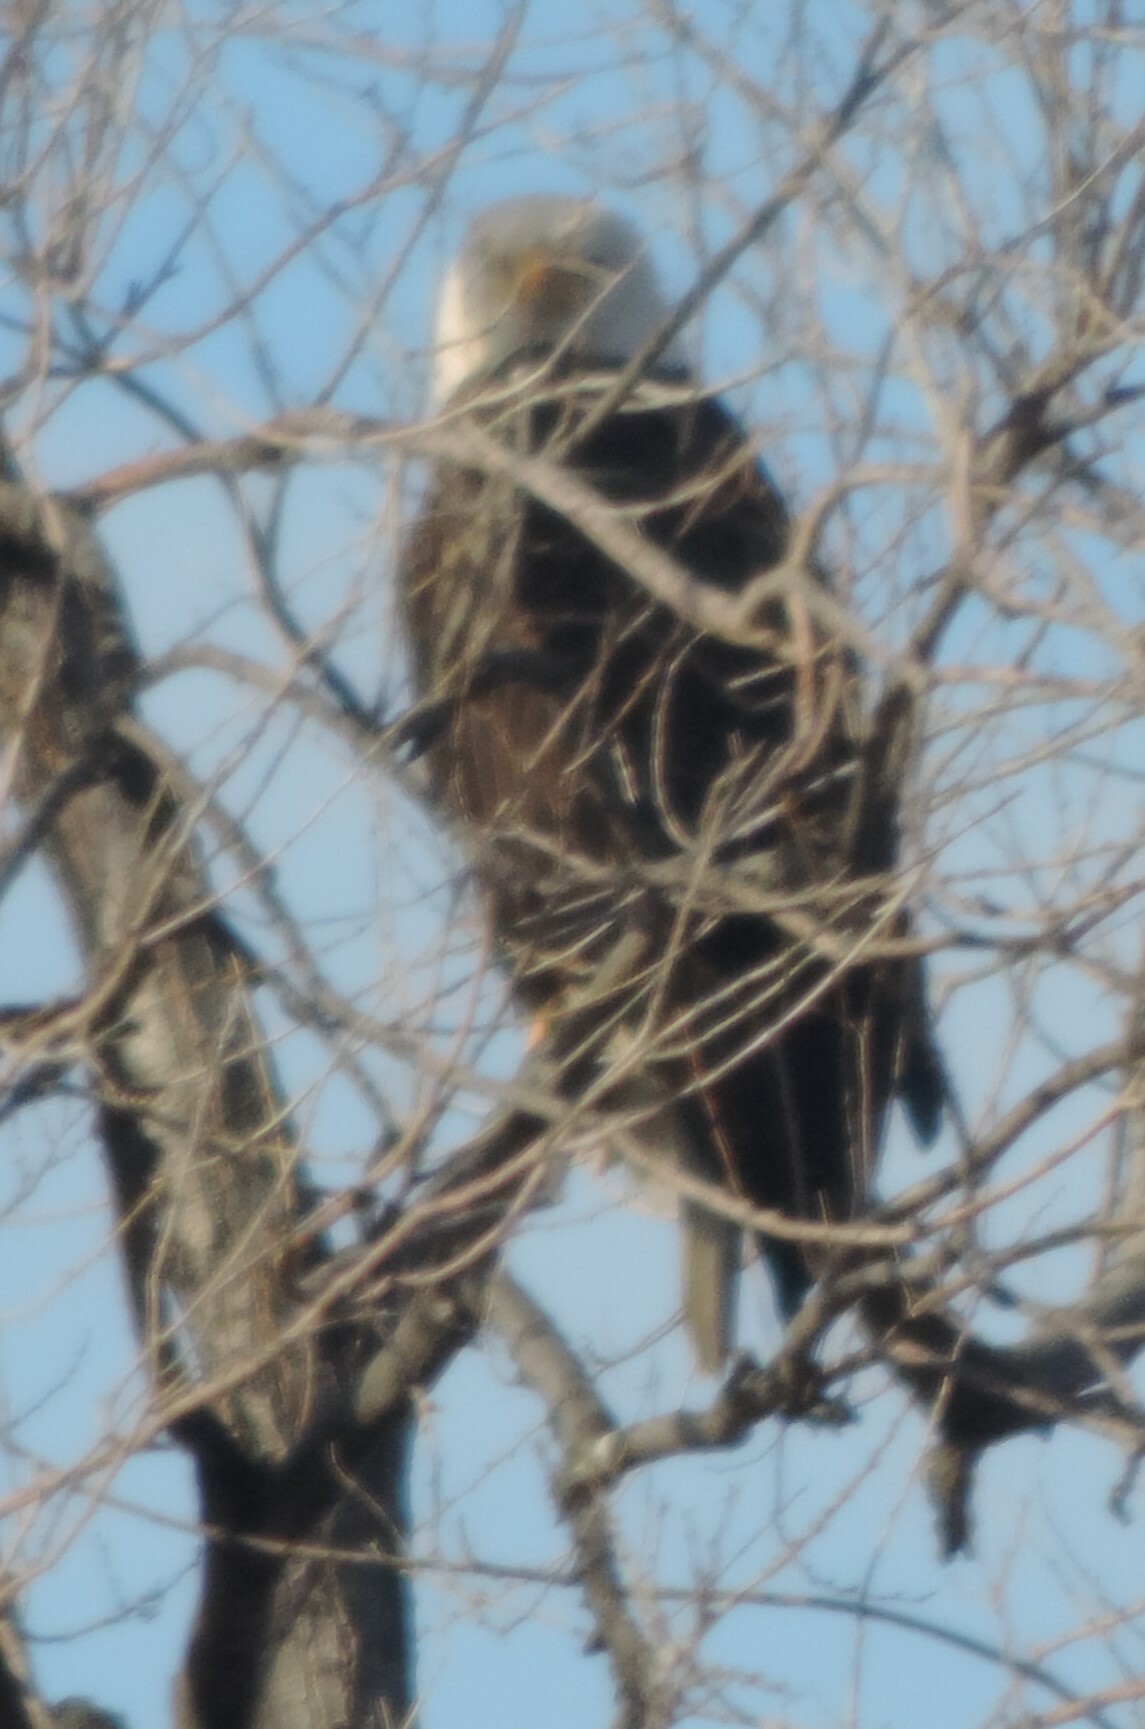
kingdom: Animalia
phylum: Chordata
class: Aves
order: Accipitriformes
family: Accipitridae
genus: Haliaeetus
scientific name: Haliaeetus leucocephalus
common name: Bald eagle
